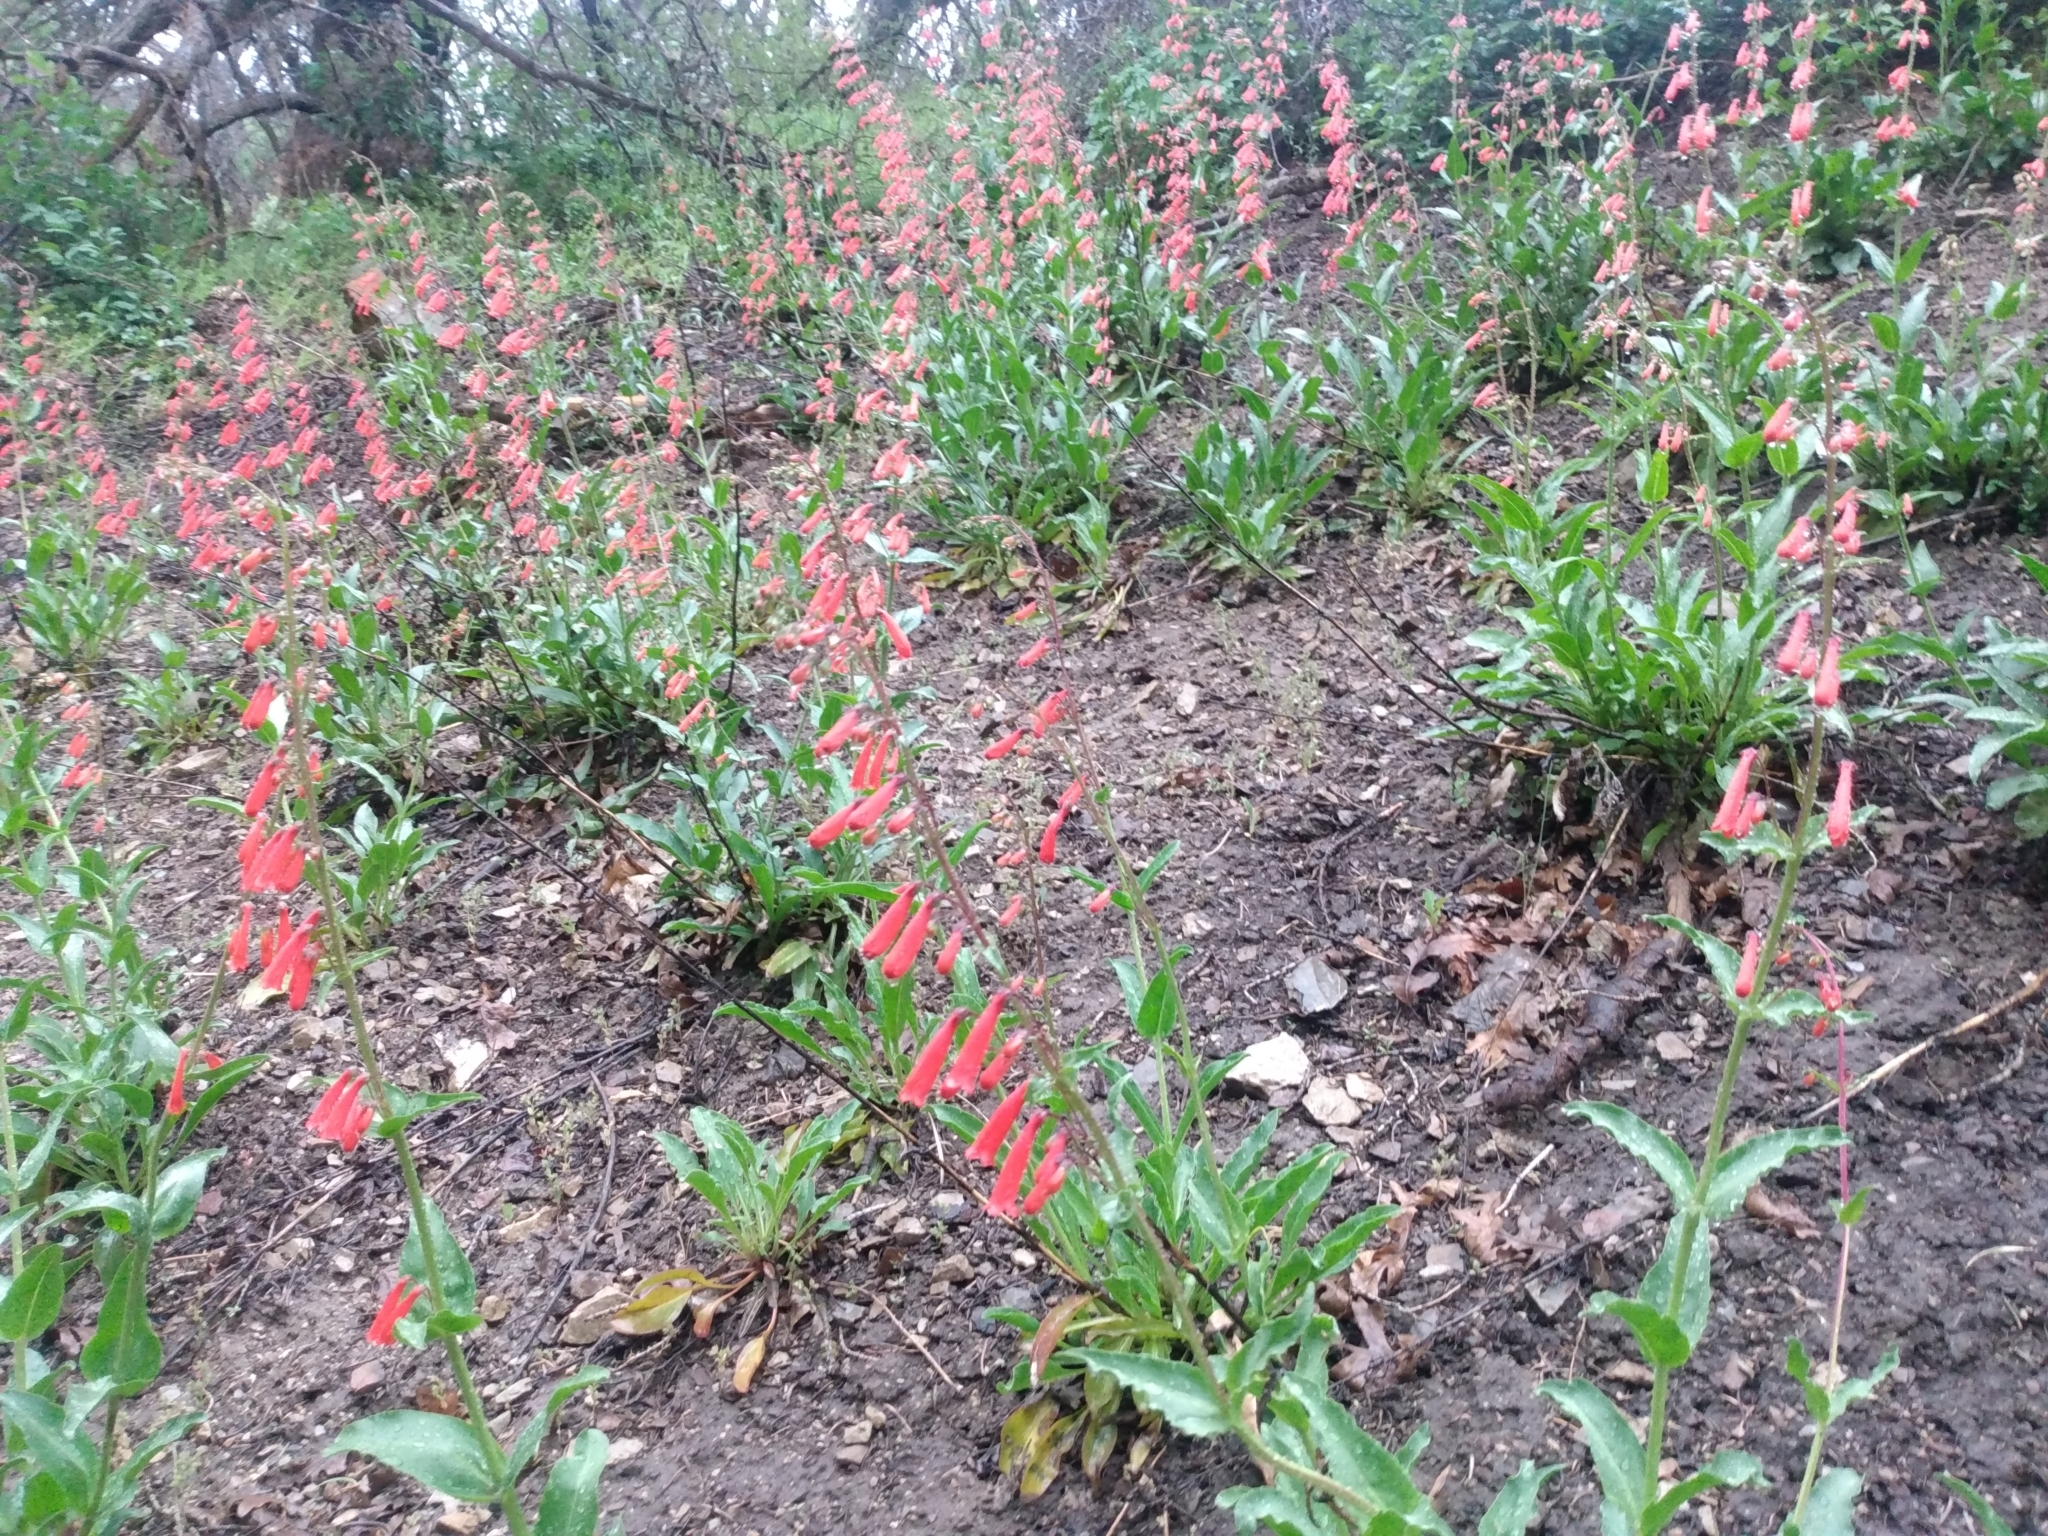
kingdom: Plantae
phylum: Tracheophyta
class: Magnoliopsida
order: Lamiales
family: Plantaginaceae
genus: Penstemon
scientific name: Penstemon eatonii
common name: Eaton's penstemon
